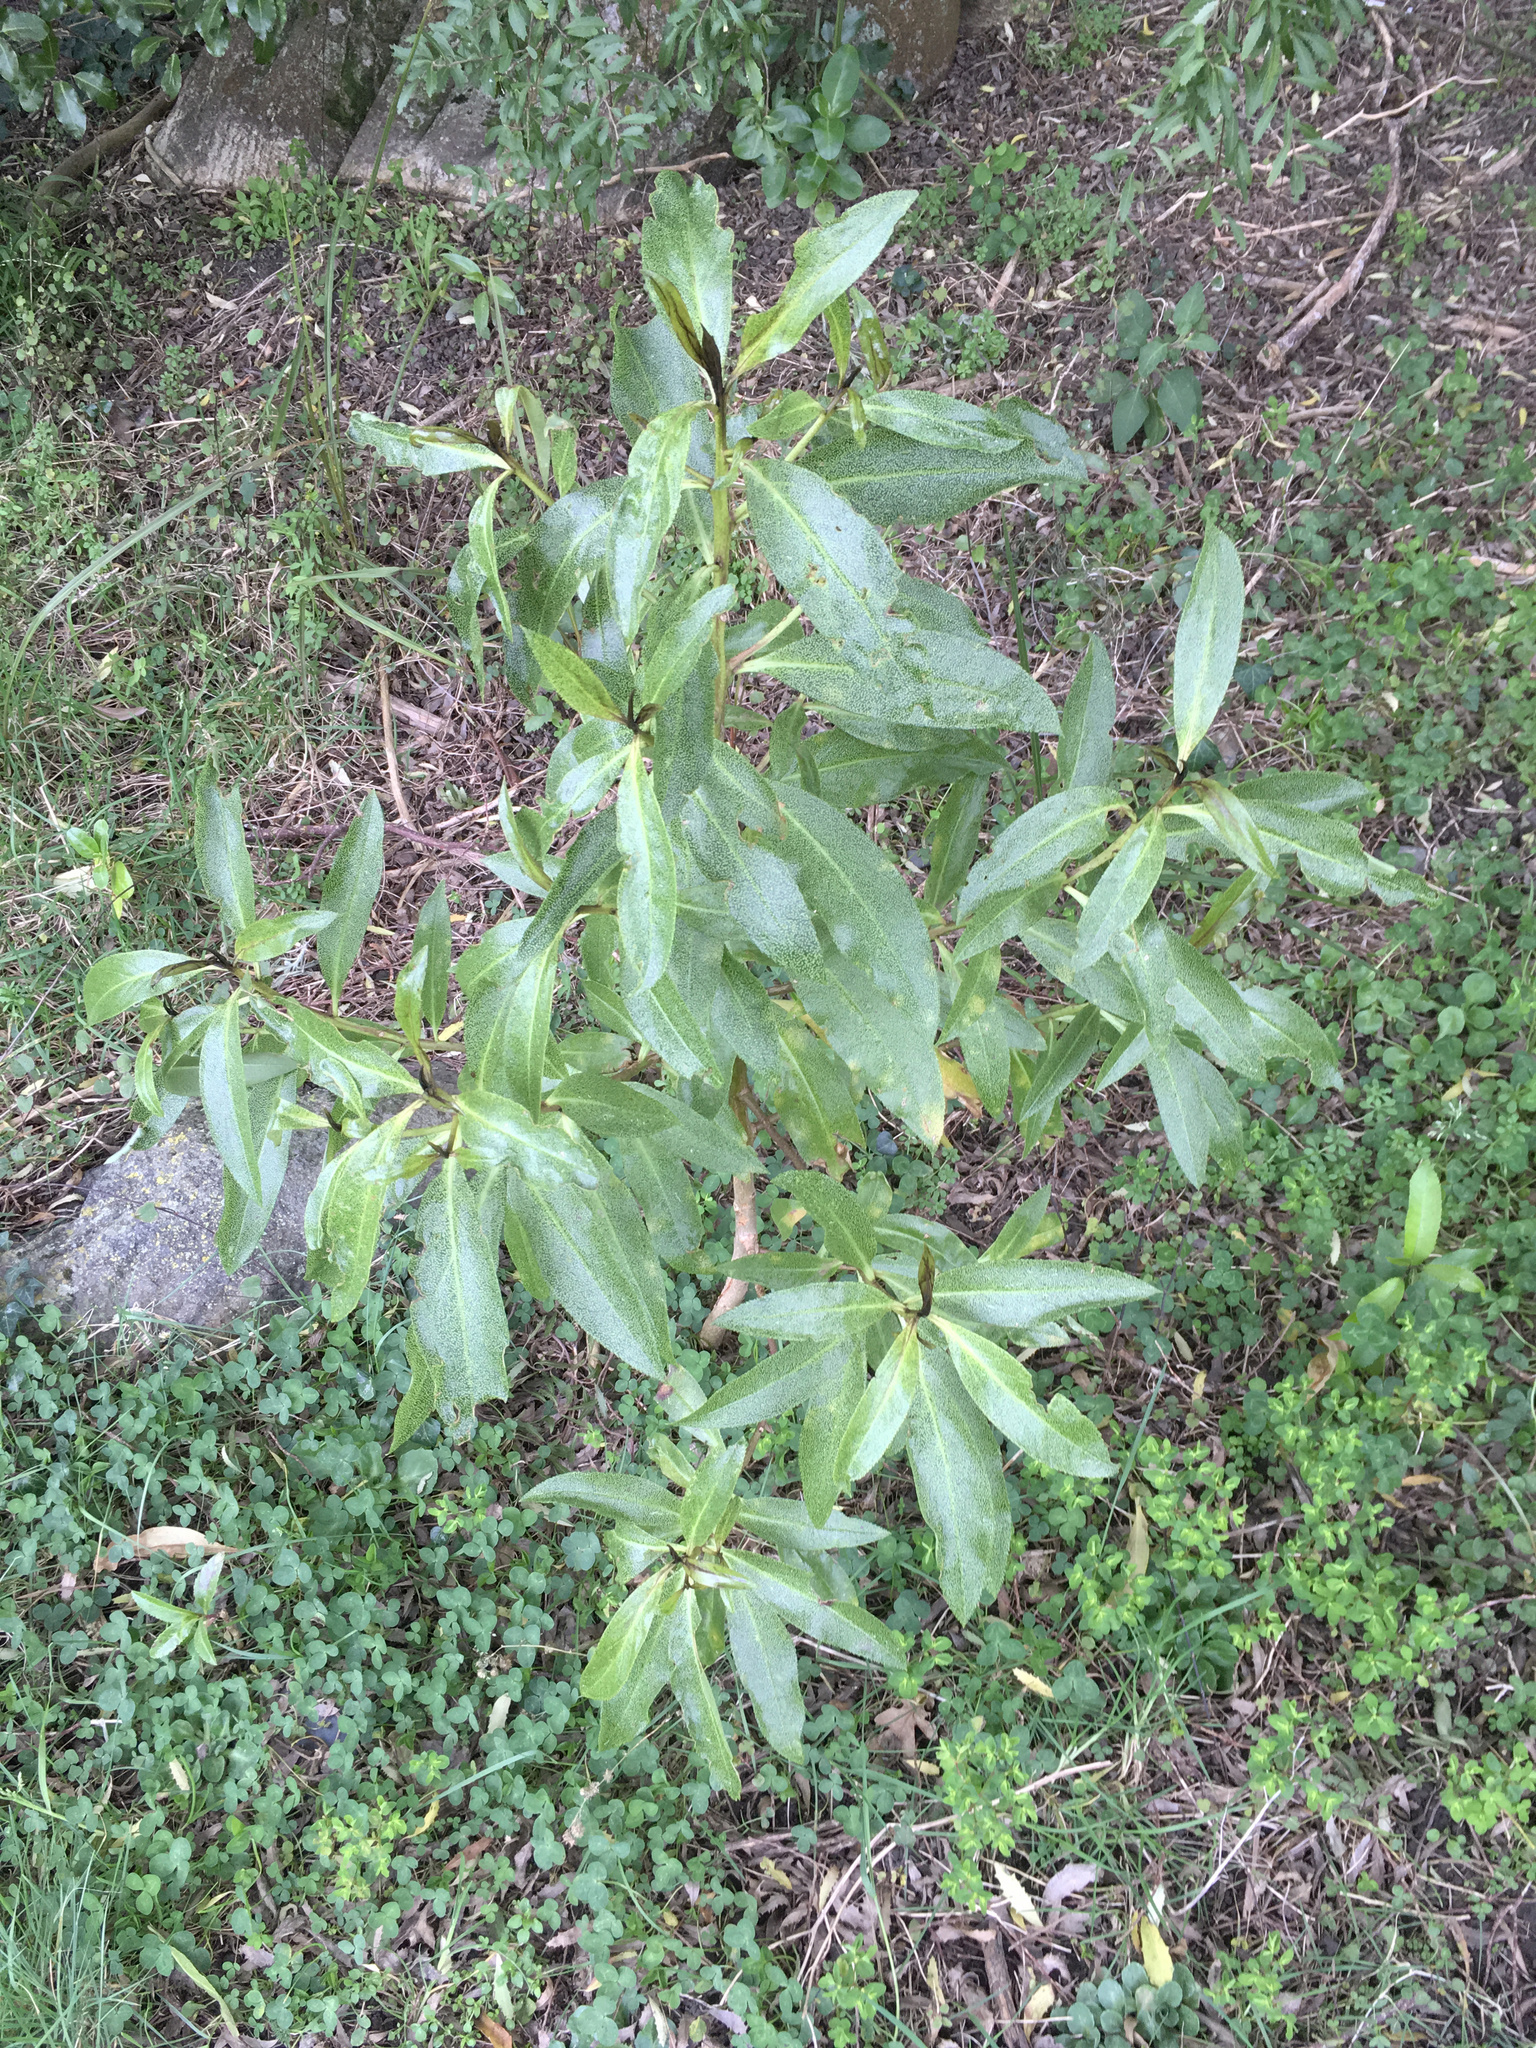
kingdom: Plantae
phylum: Tracheophyta
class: Magnoliopsida
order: Lamiales
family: Scrophulariaceae
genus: Myoporum
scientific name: Myoporum laetum
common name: Ngaio tree
